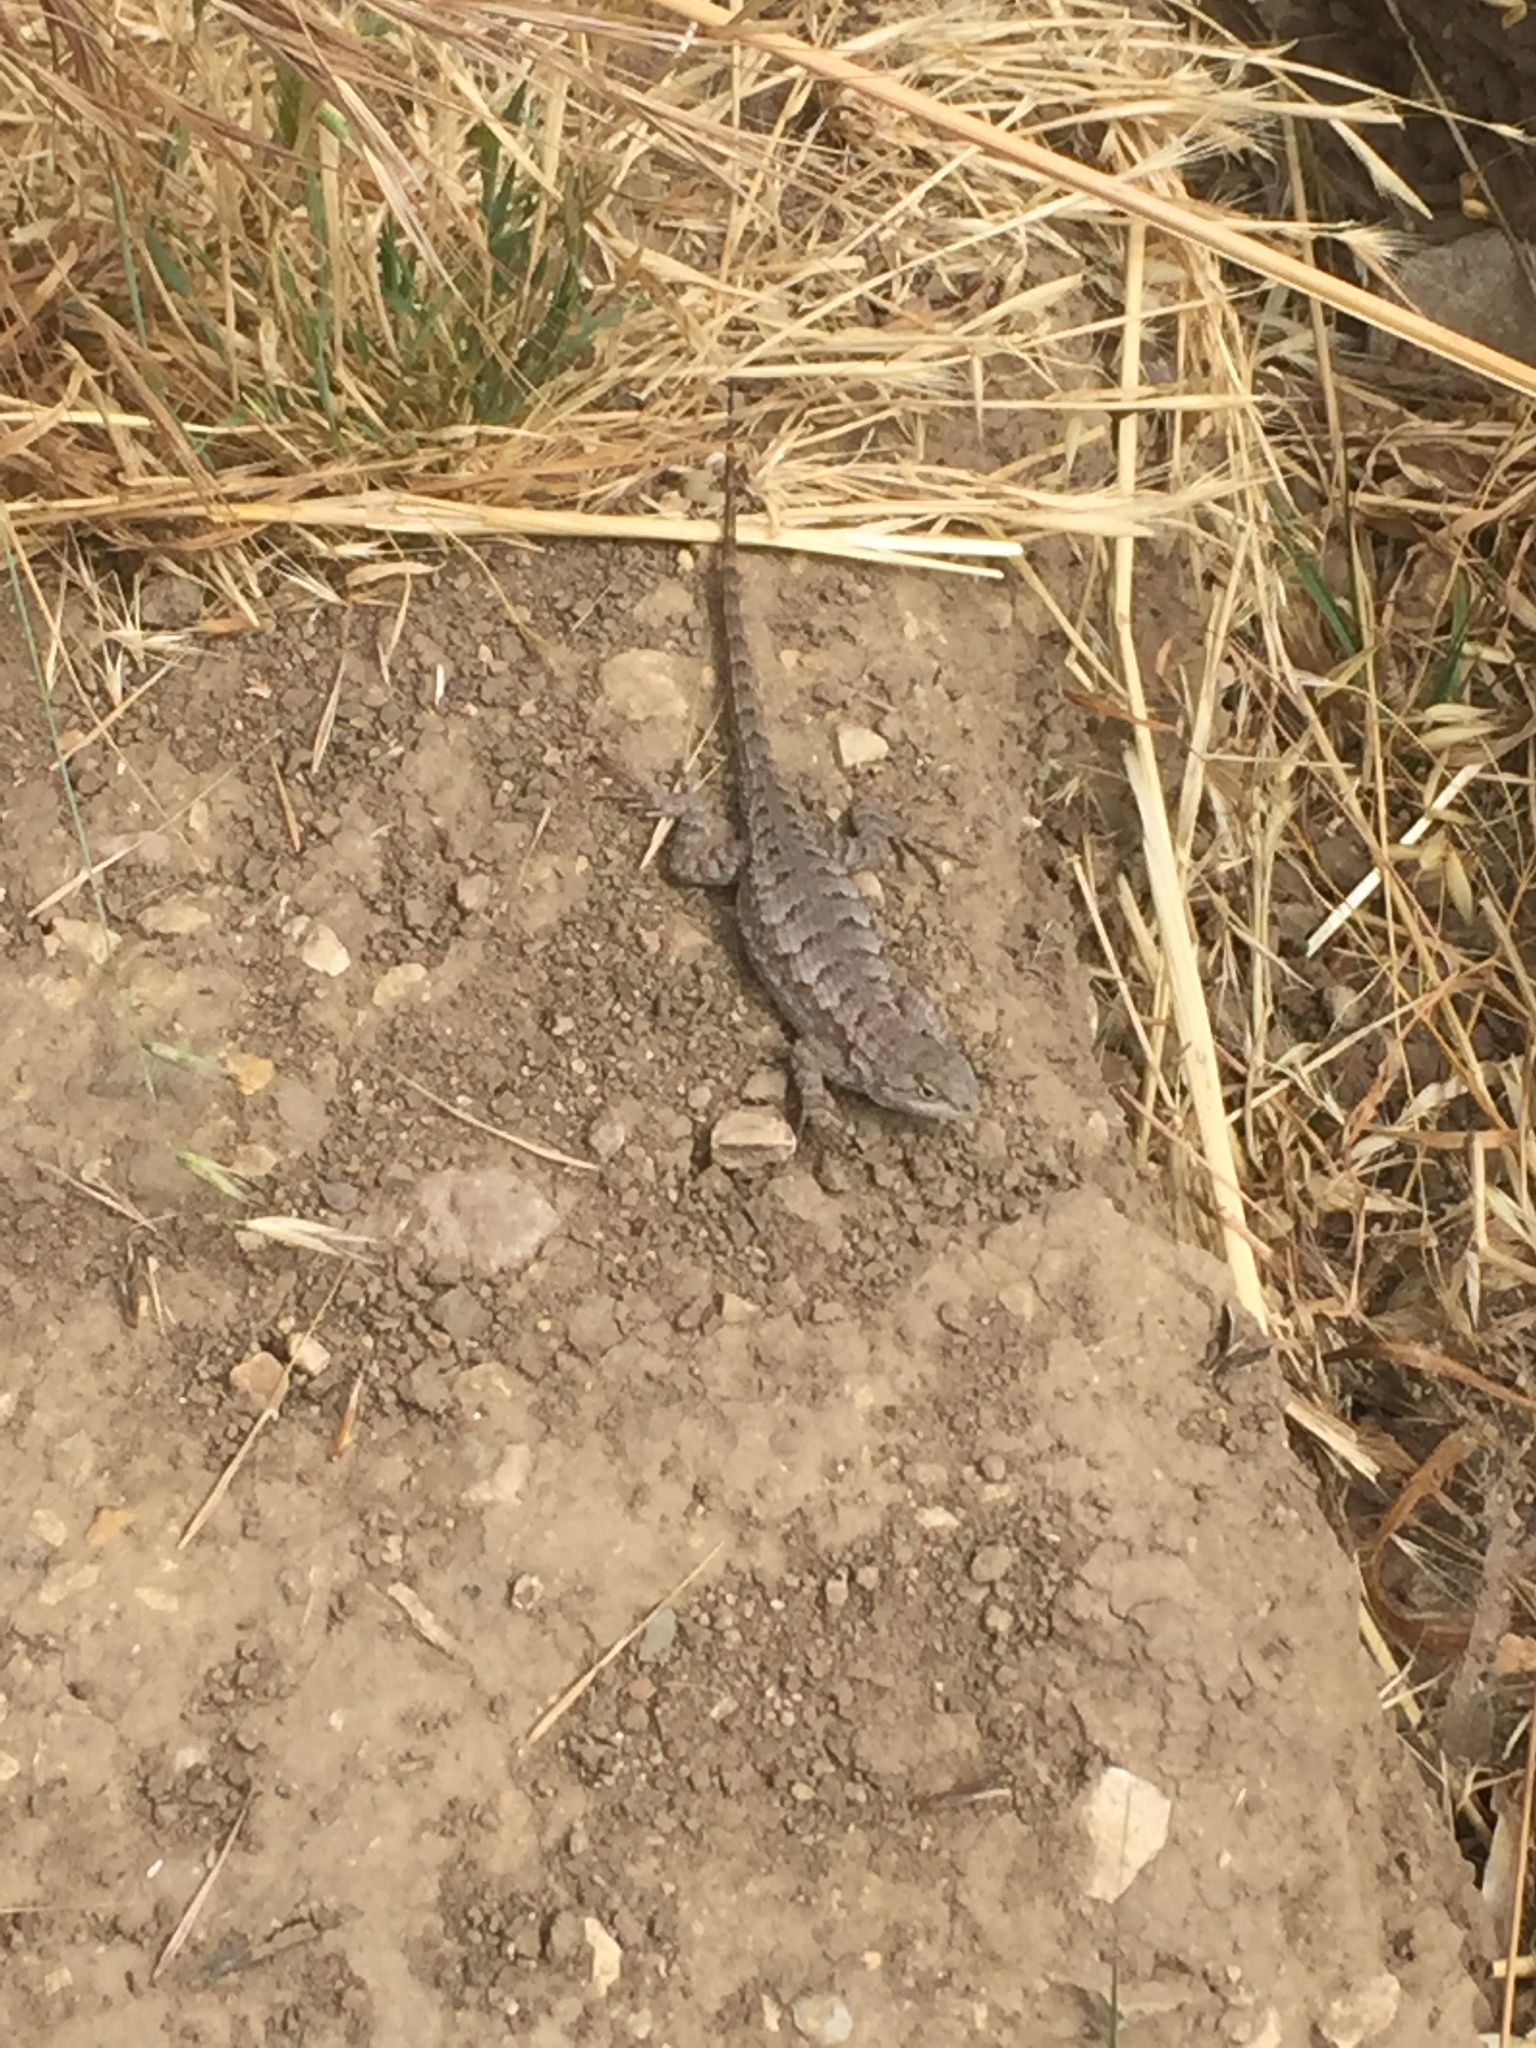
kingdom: Animalia
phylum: Chordata
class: Squamata
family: Phrynosomatidae
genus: Sceloporus
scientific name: Sceloporus occidentalis
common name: Western fence lizard
